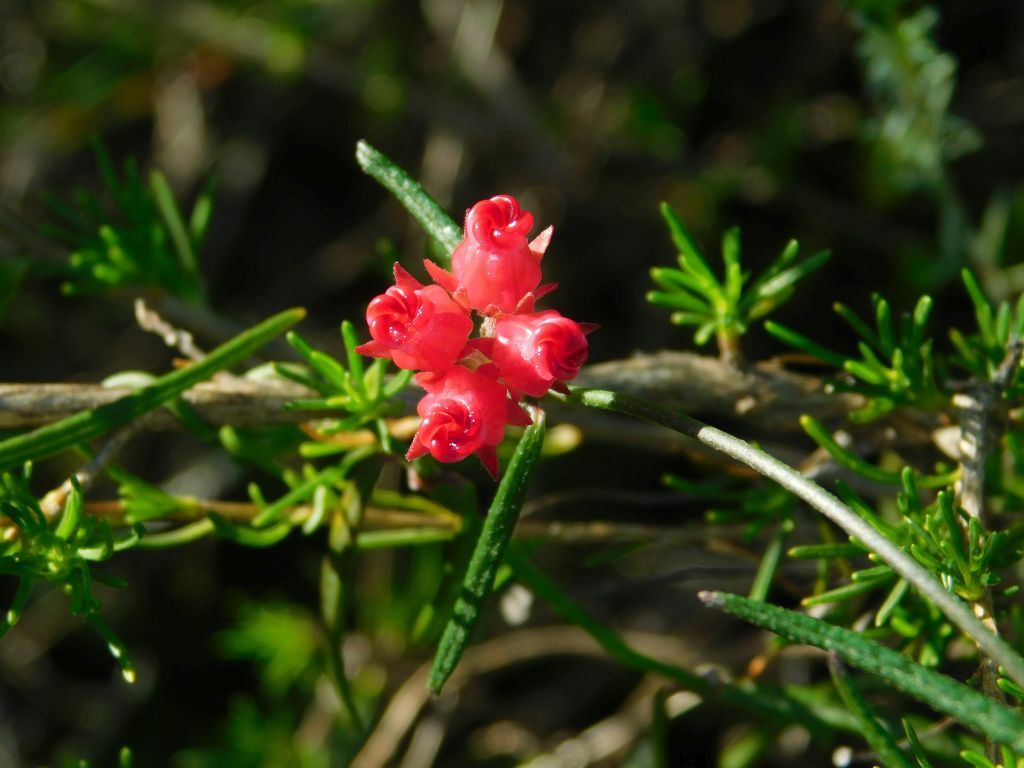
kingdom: Plantae
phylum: Tracheophyta
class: Magnoliopsida
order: Gentianales
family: Apocynaceae
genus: Microloma
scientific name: Microloma tenuifolium
